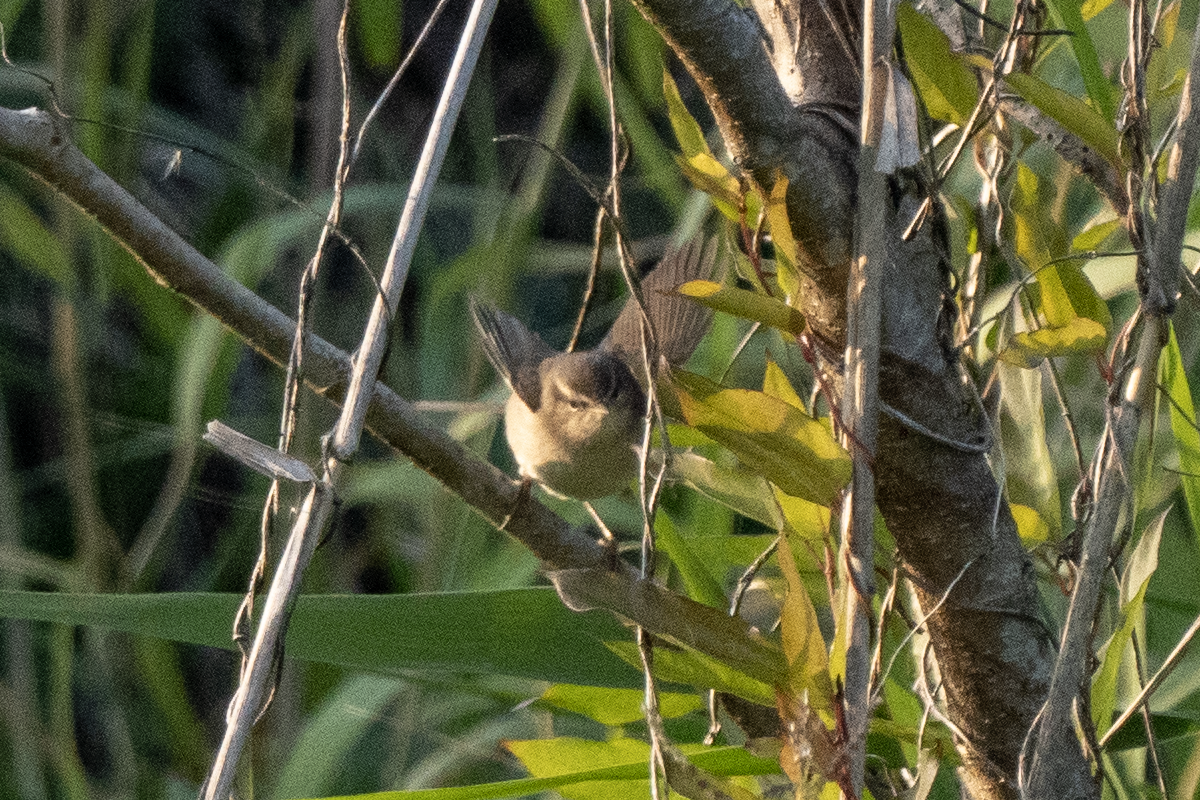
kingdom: Animalia
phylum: Chordata
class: Aves
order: Passeriformes
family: Phylloscopidae
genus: Phylloscopus
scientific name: Phylloscopus fuscatus
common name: Dusky warbler
